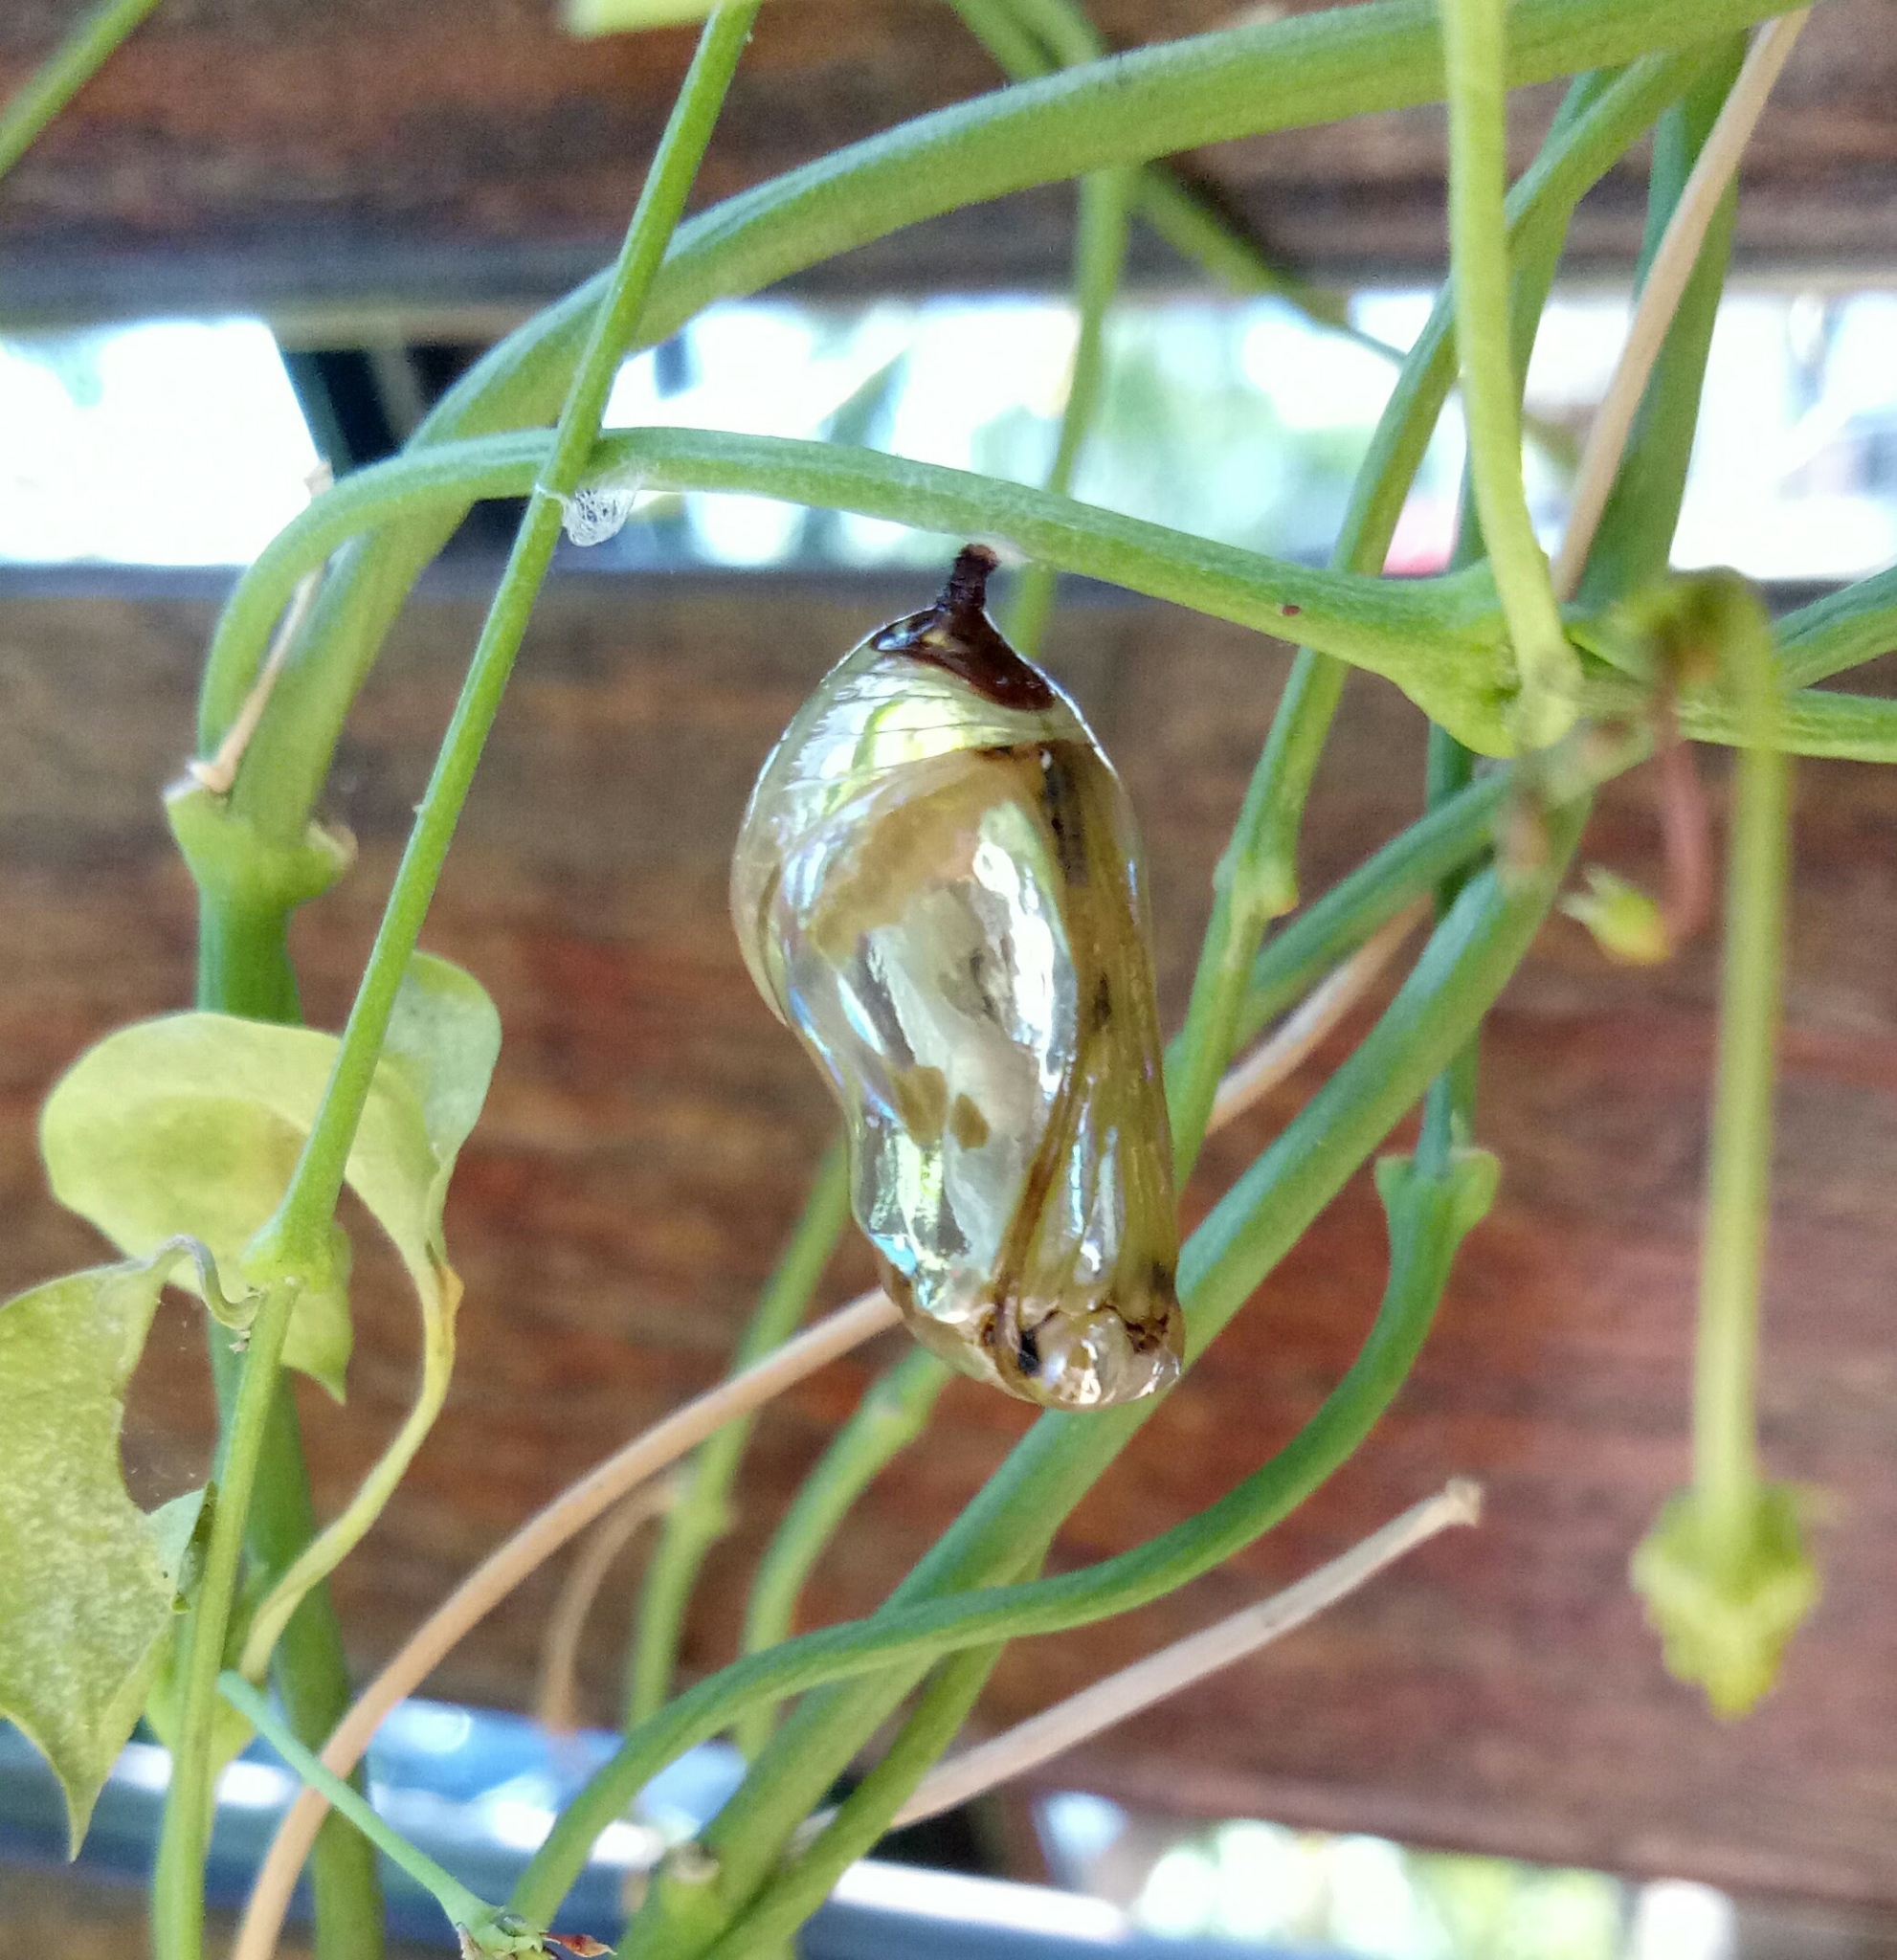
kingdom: Animalia
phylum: Arthropoda
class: Insecta
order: Lepidoptera
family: Nymphalidae
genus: Euploea
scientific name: Euploea core
